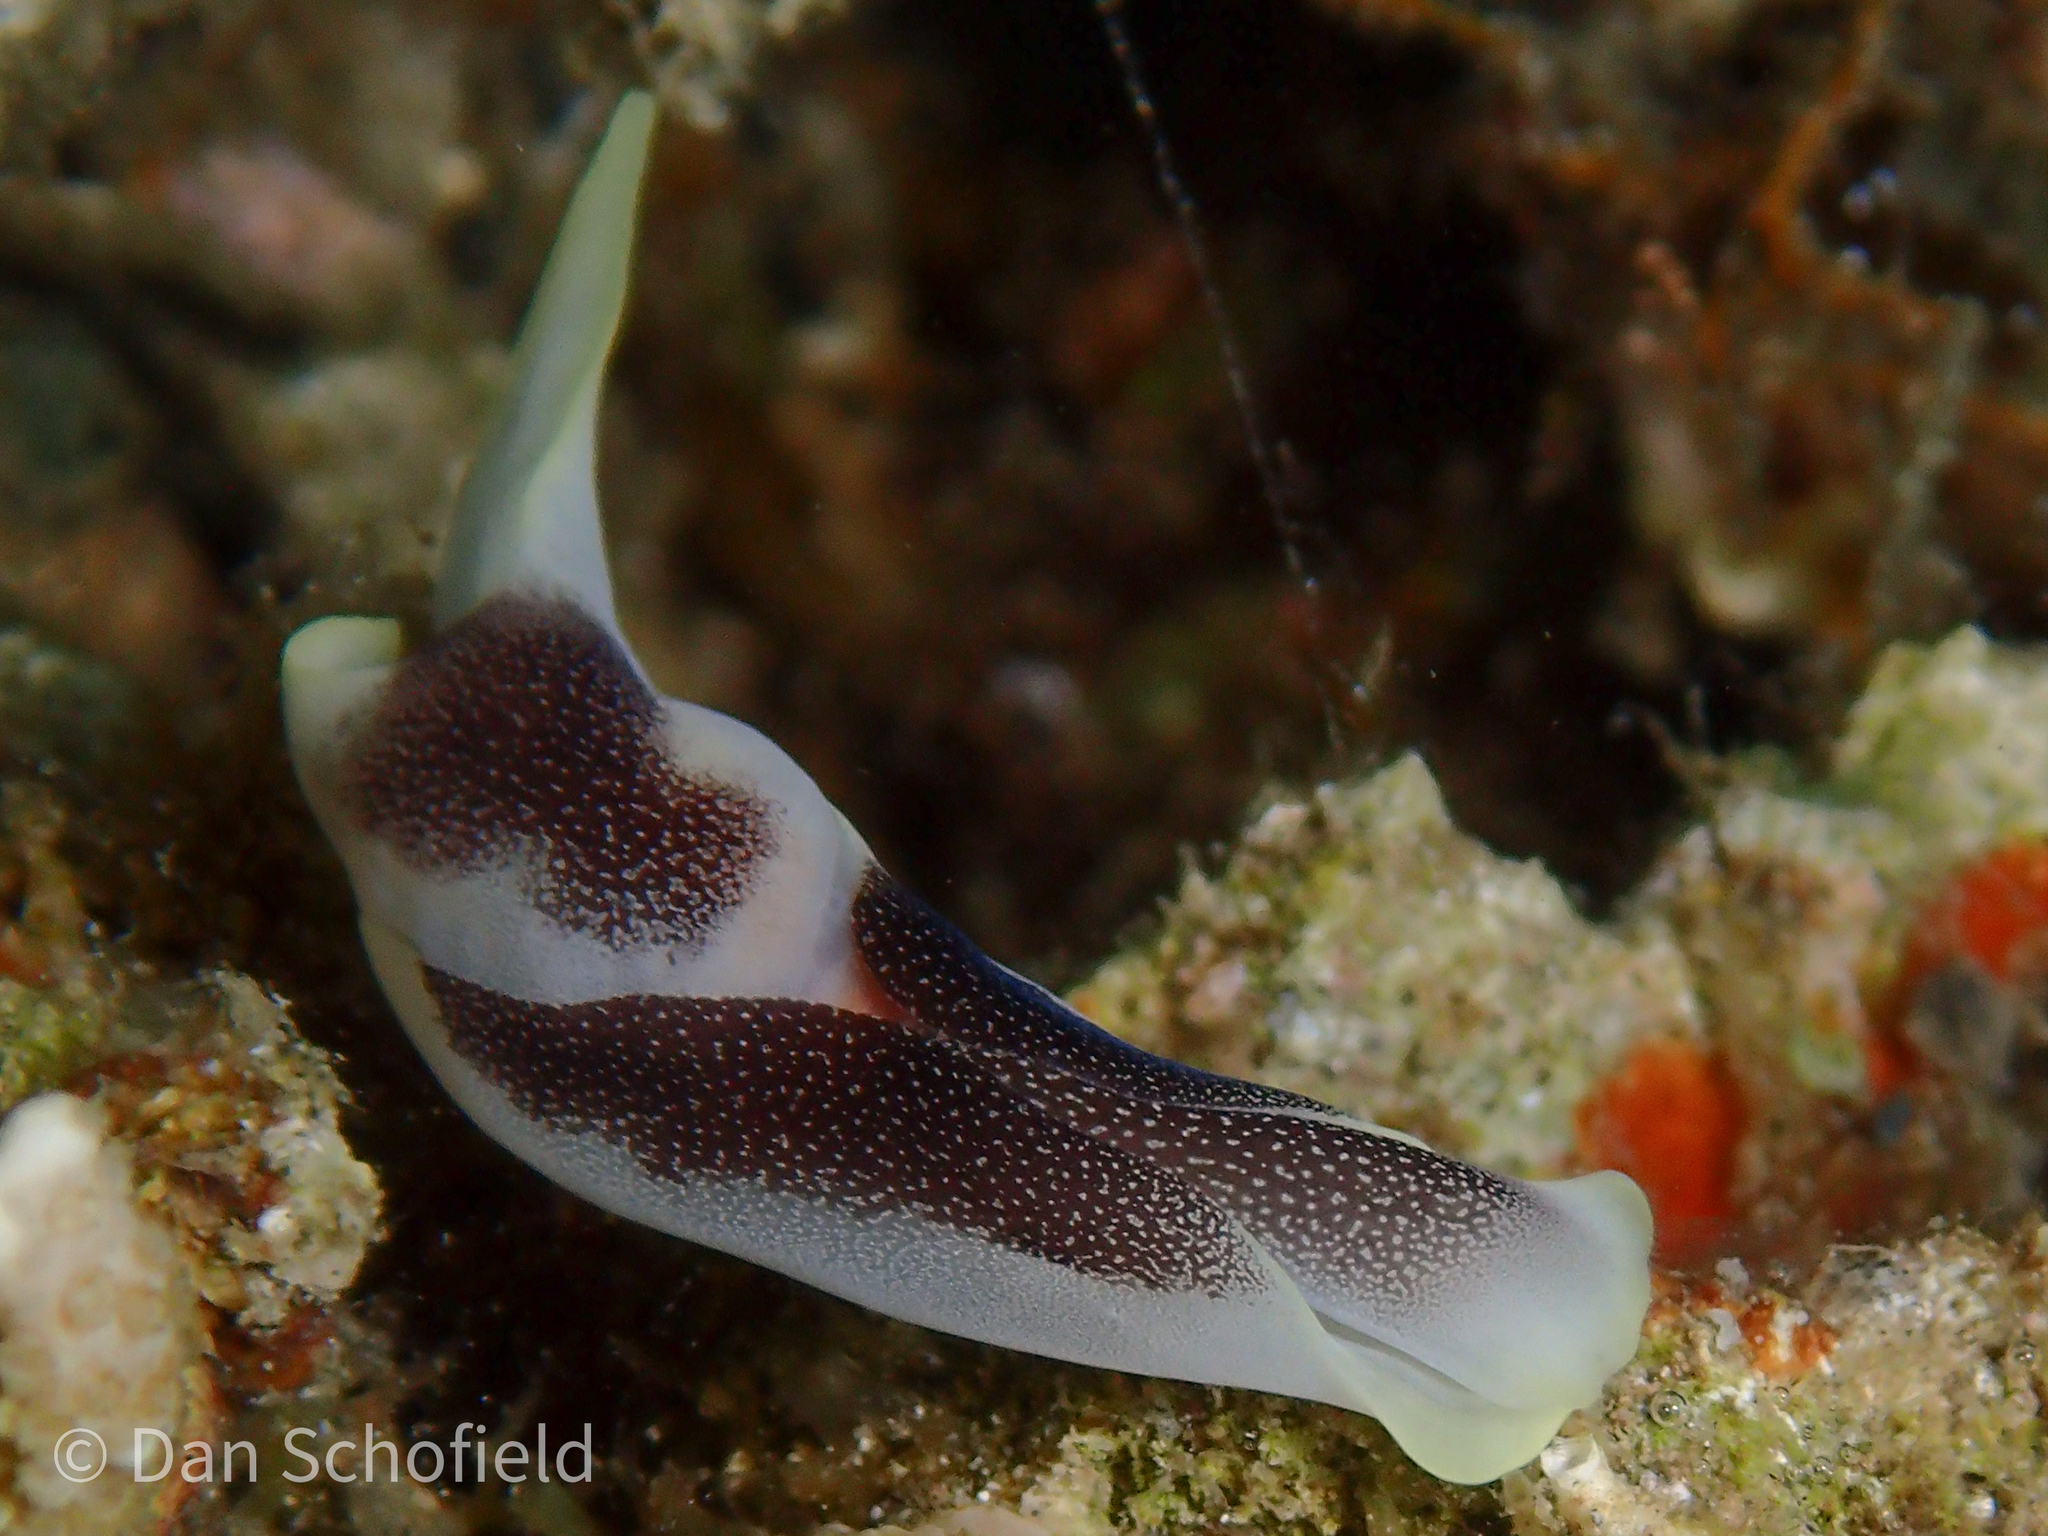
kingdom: Animalia
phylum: Mollusca
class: Gastropoda
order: Cephalaspidea
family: Aglajidae
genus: Chelidonura
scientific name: Chelidonura amoena
